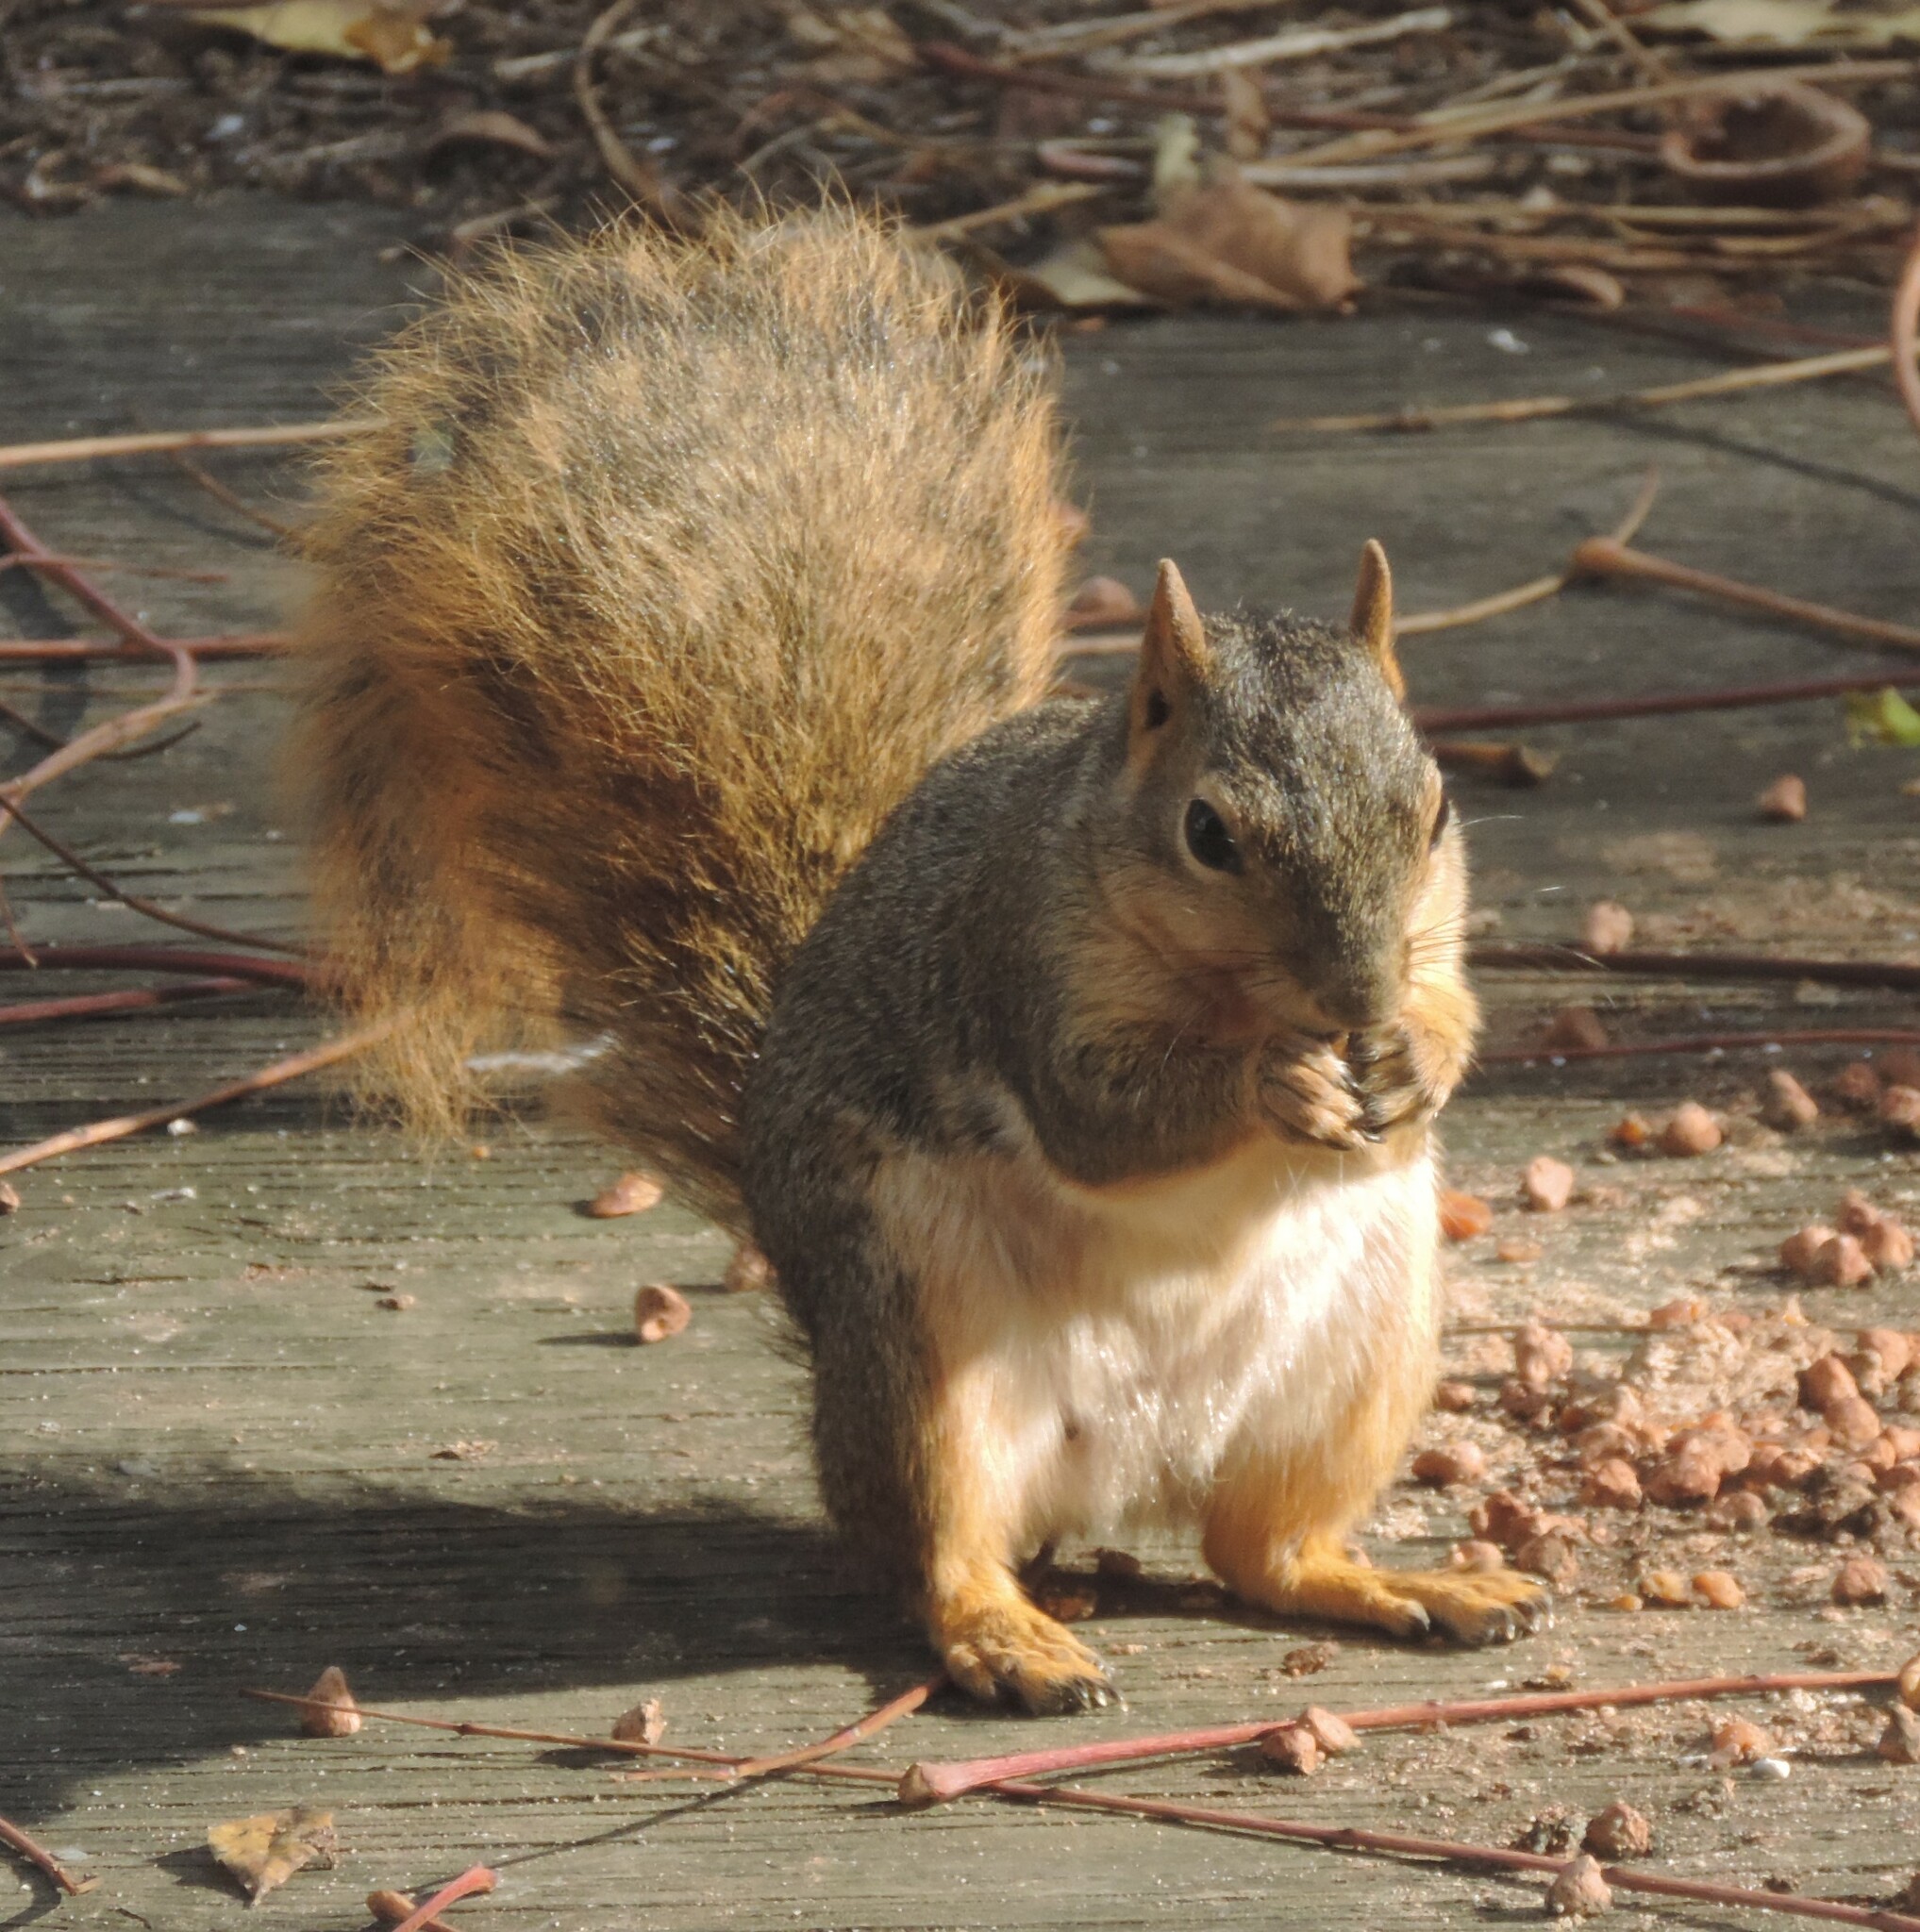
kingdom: Animalia
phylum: Chordata
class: Mammalia
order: Rodentia
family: Sciuridae
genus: Sciurus
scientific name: Sciurus niger
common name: Fox squirrel
